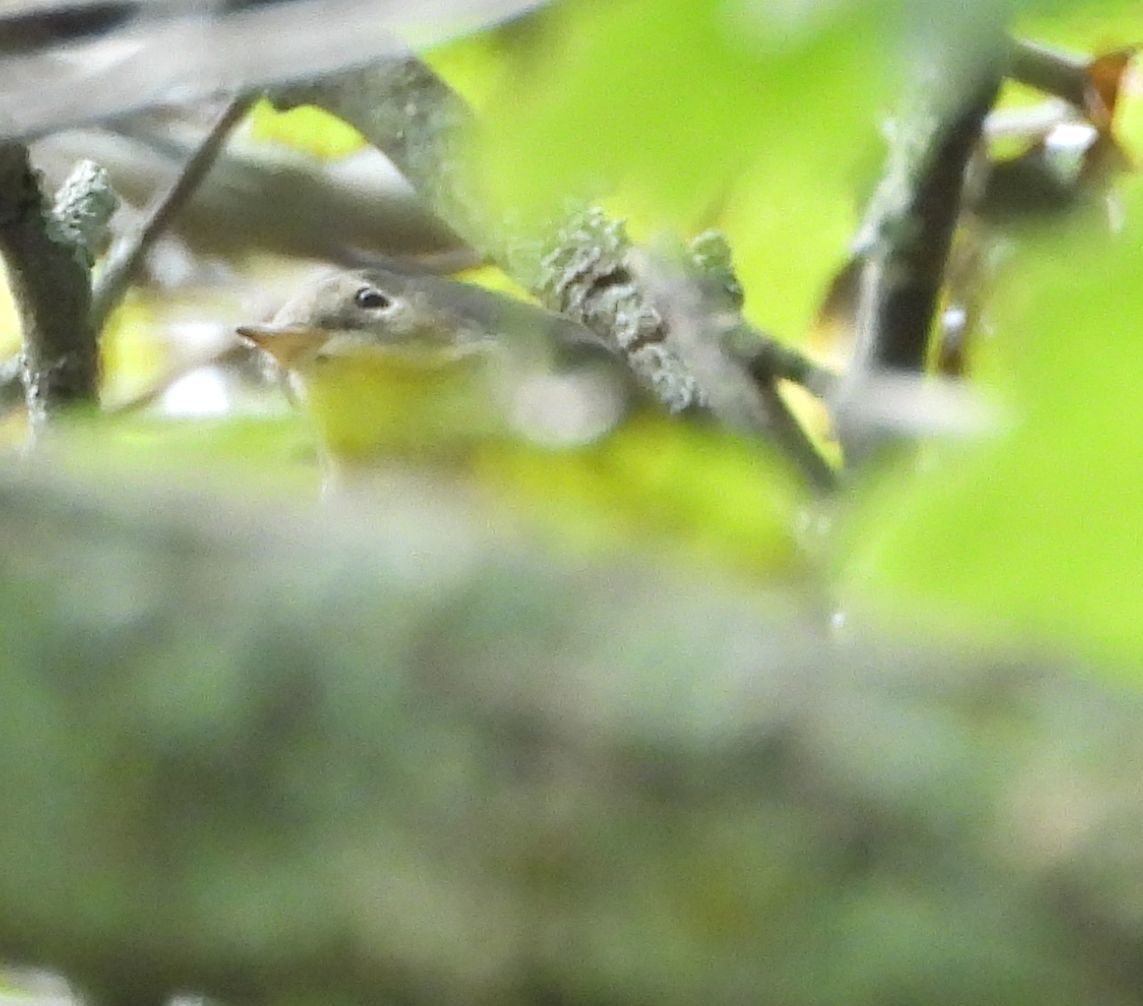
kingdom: Animalia
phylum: Chordata
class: Aves
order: Passeriformes
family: Parulidae
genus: Setophaga
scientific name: Setophaga magnolia
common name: Magnolia warbler
